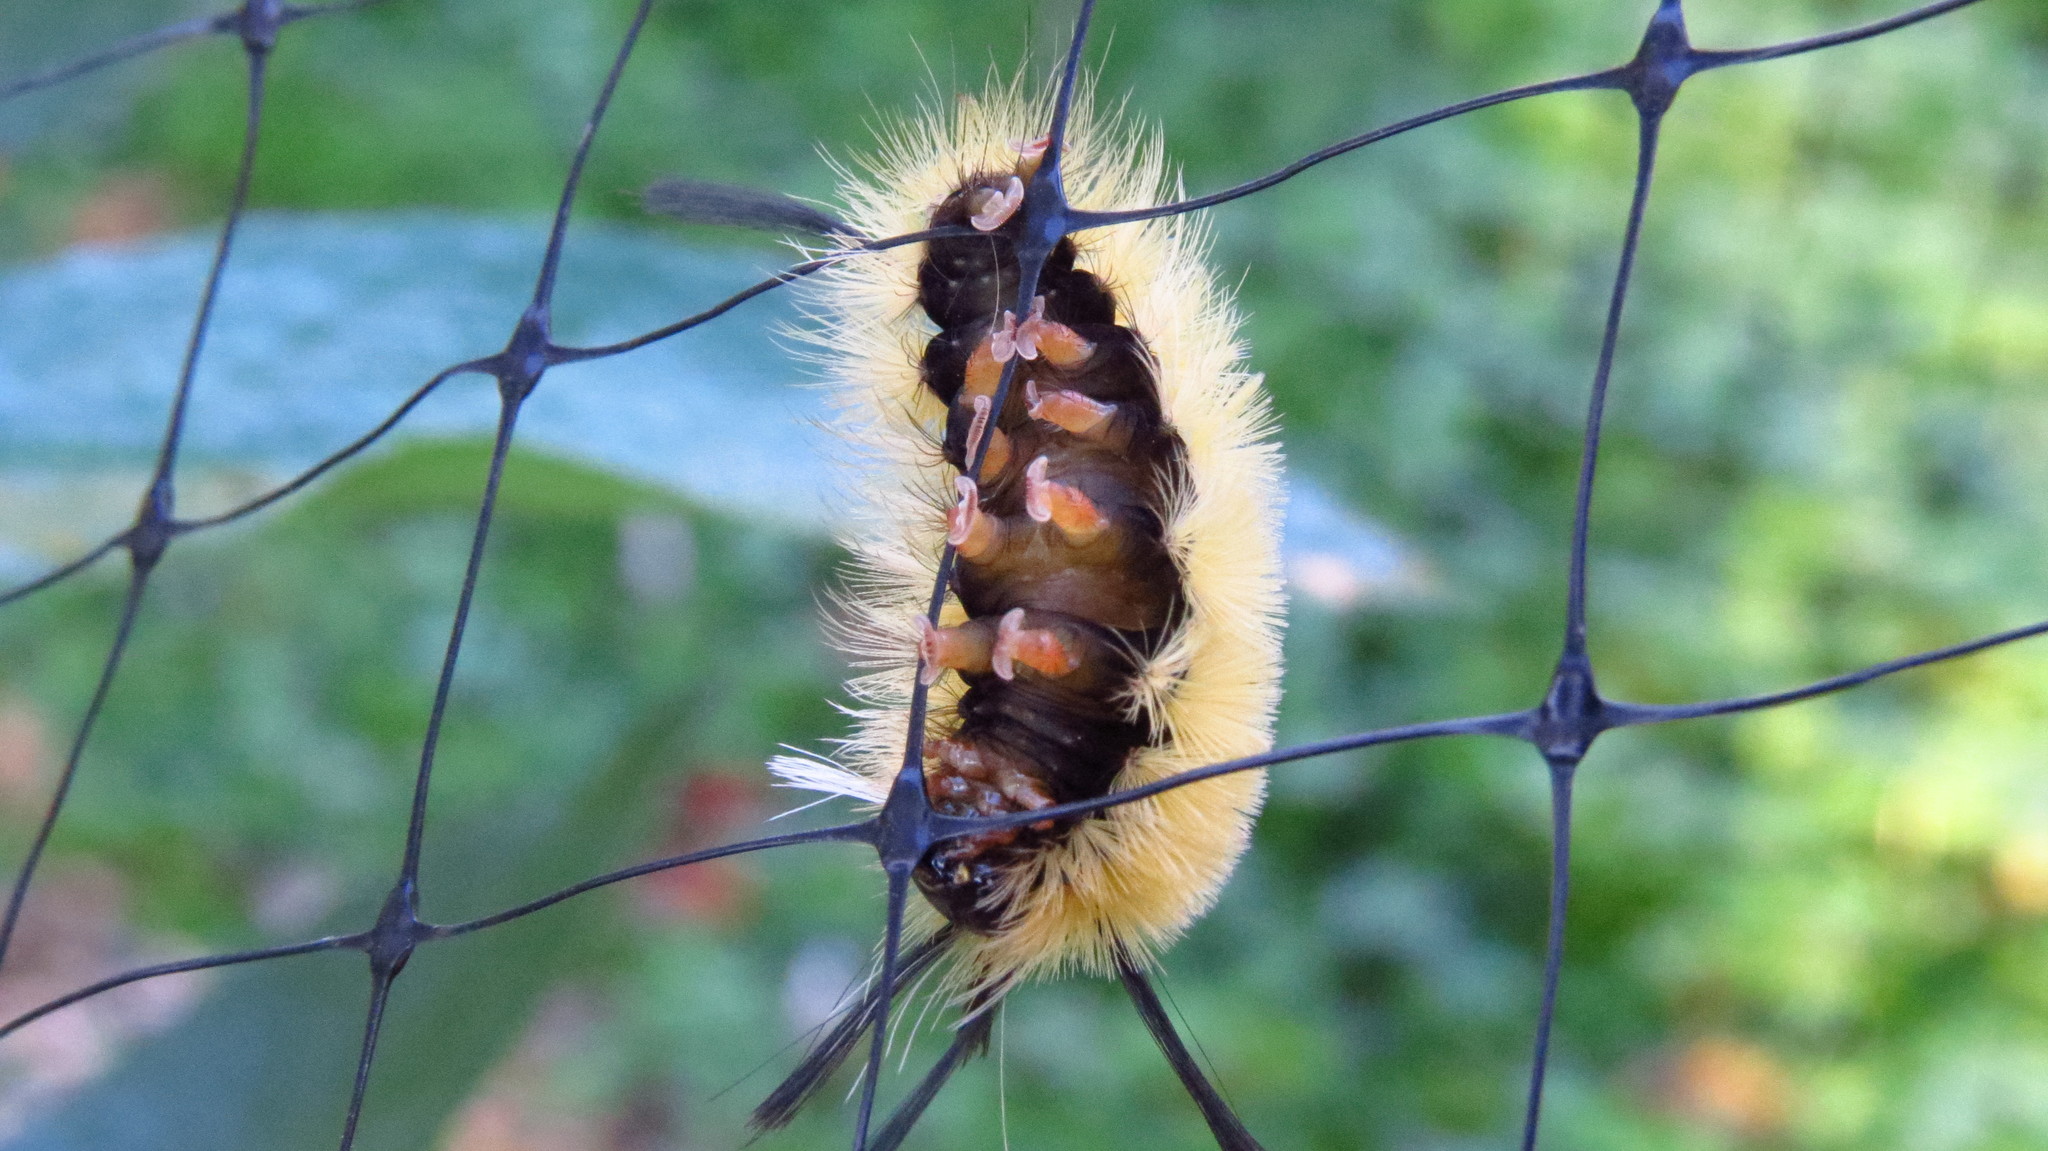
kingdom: Animalia
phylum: Arthropoda
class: Insecta
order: Lepidoptera
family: Erebidae
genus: Halysidota
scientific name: Halysidota tessellaris
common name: Banded tussock moth
